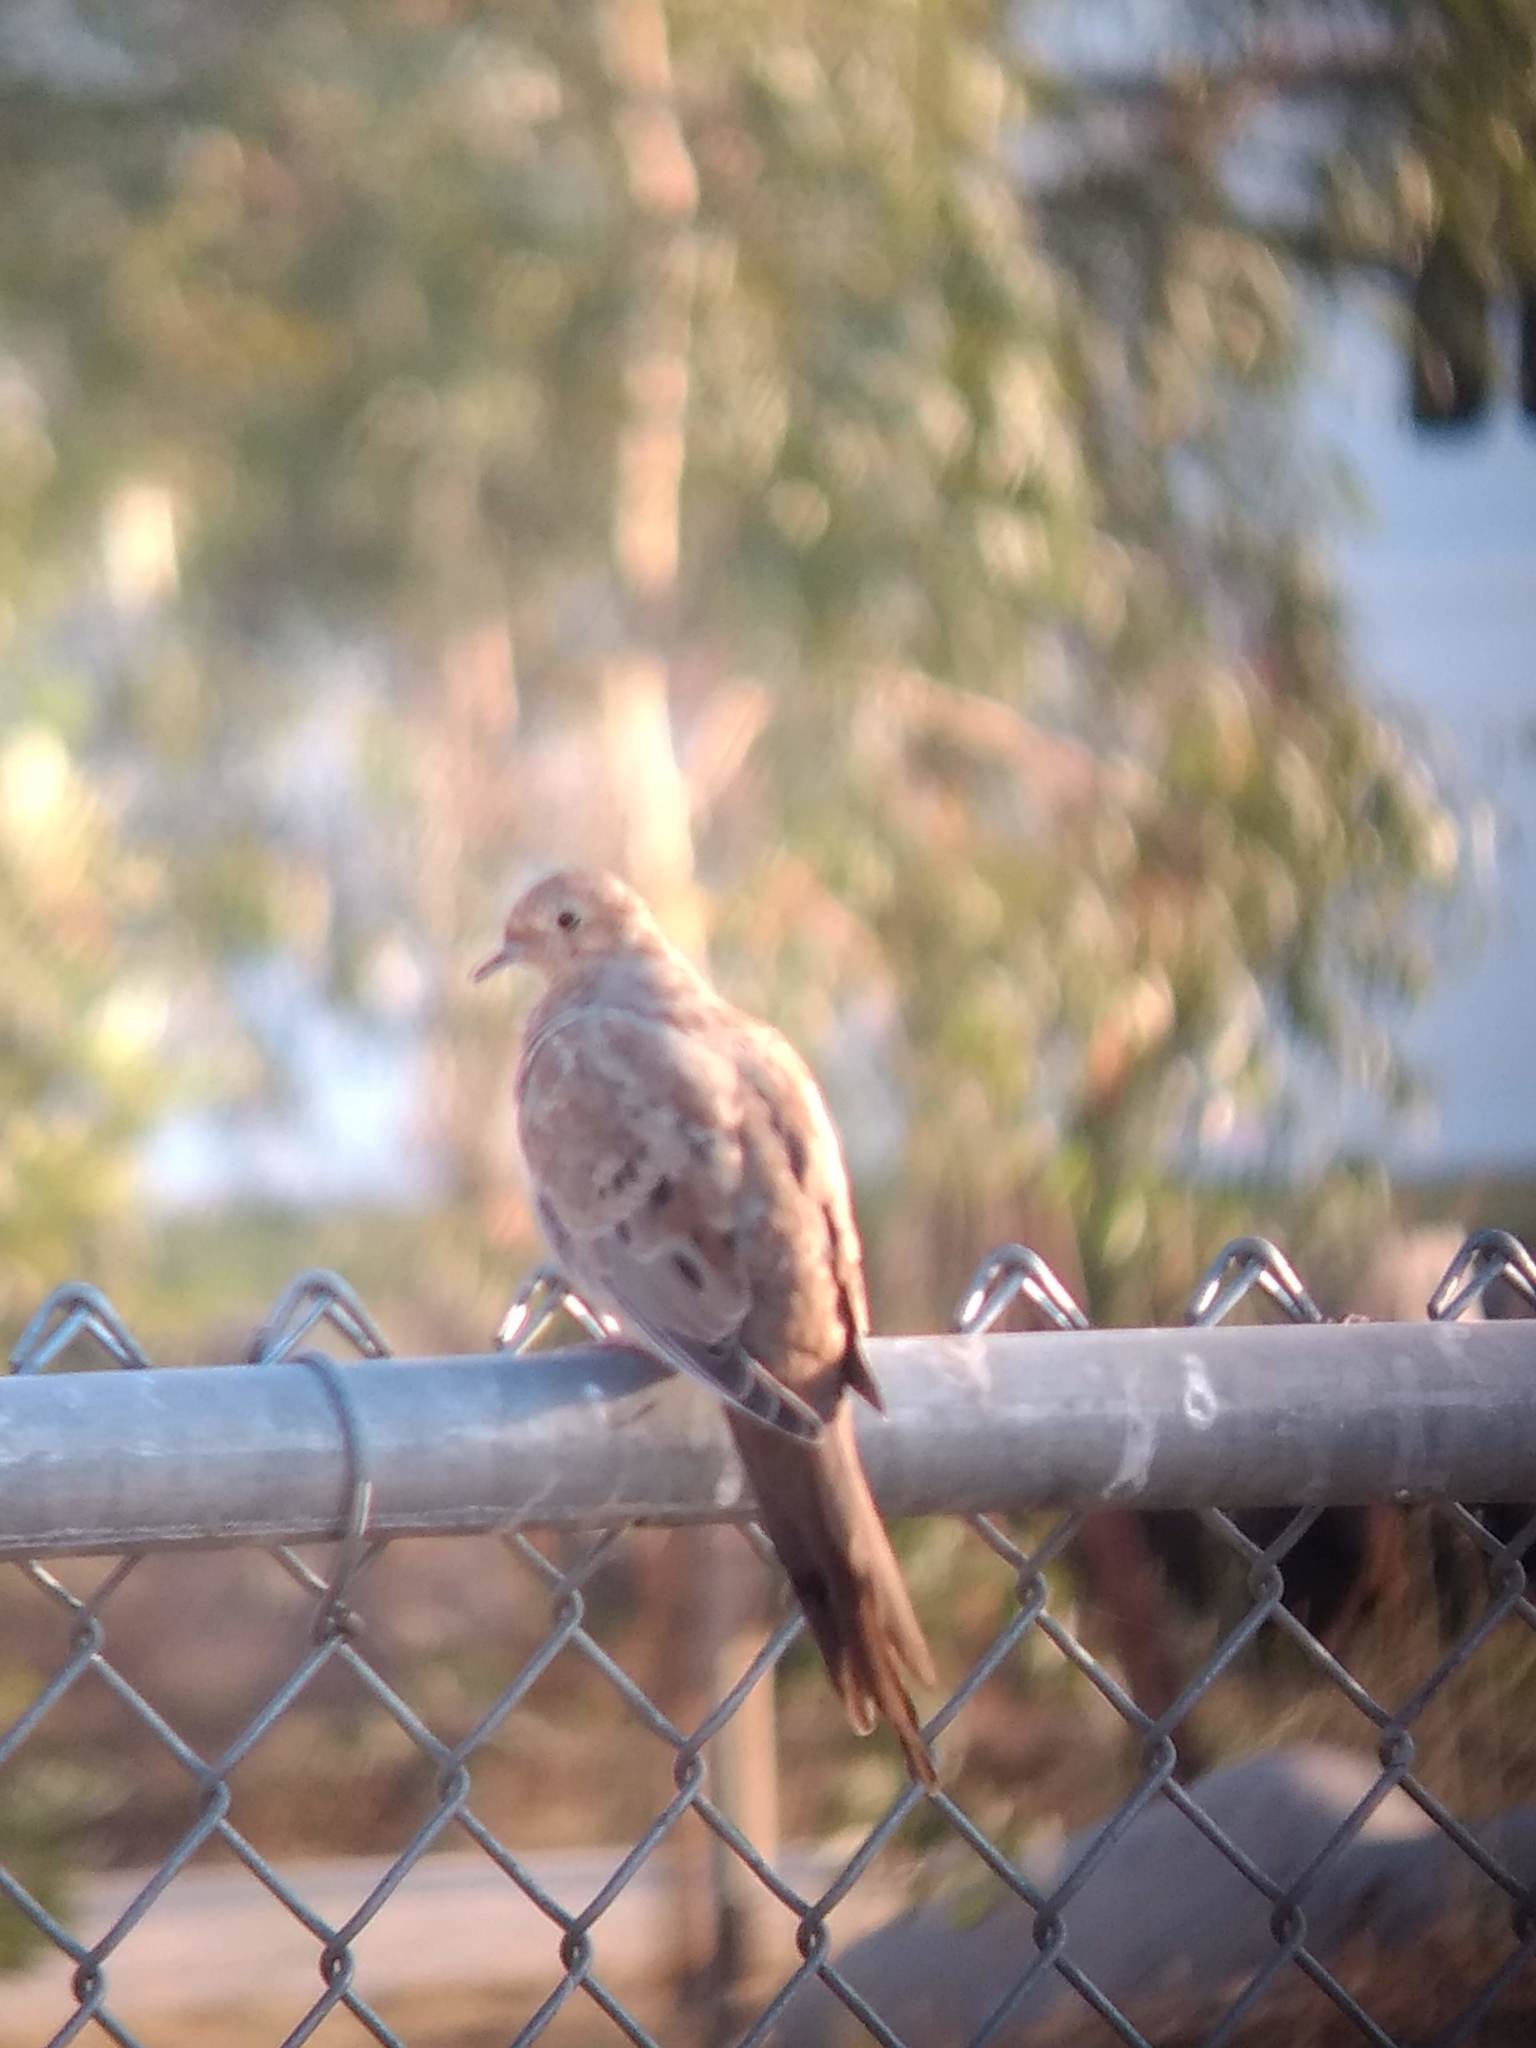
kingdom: Animalia
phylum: Chordata
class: Aves
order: Columbiformes
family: Columbidae
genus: Zenaida
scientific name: Zenaida macroura
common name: Mourning dove
